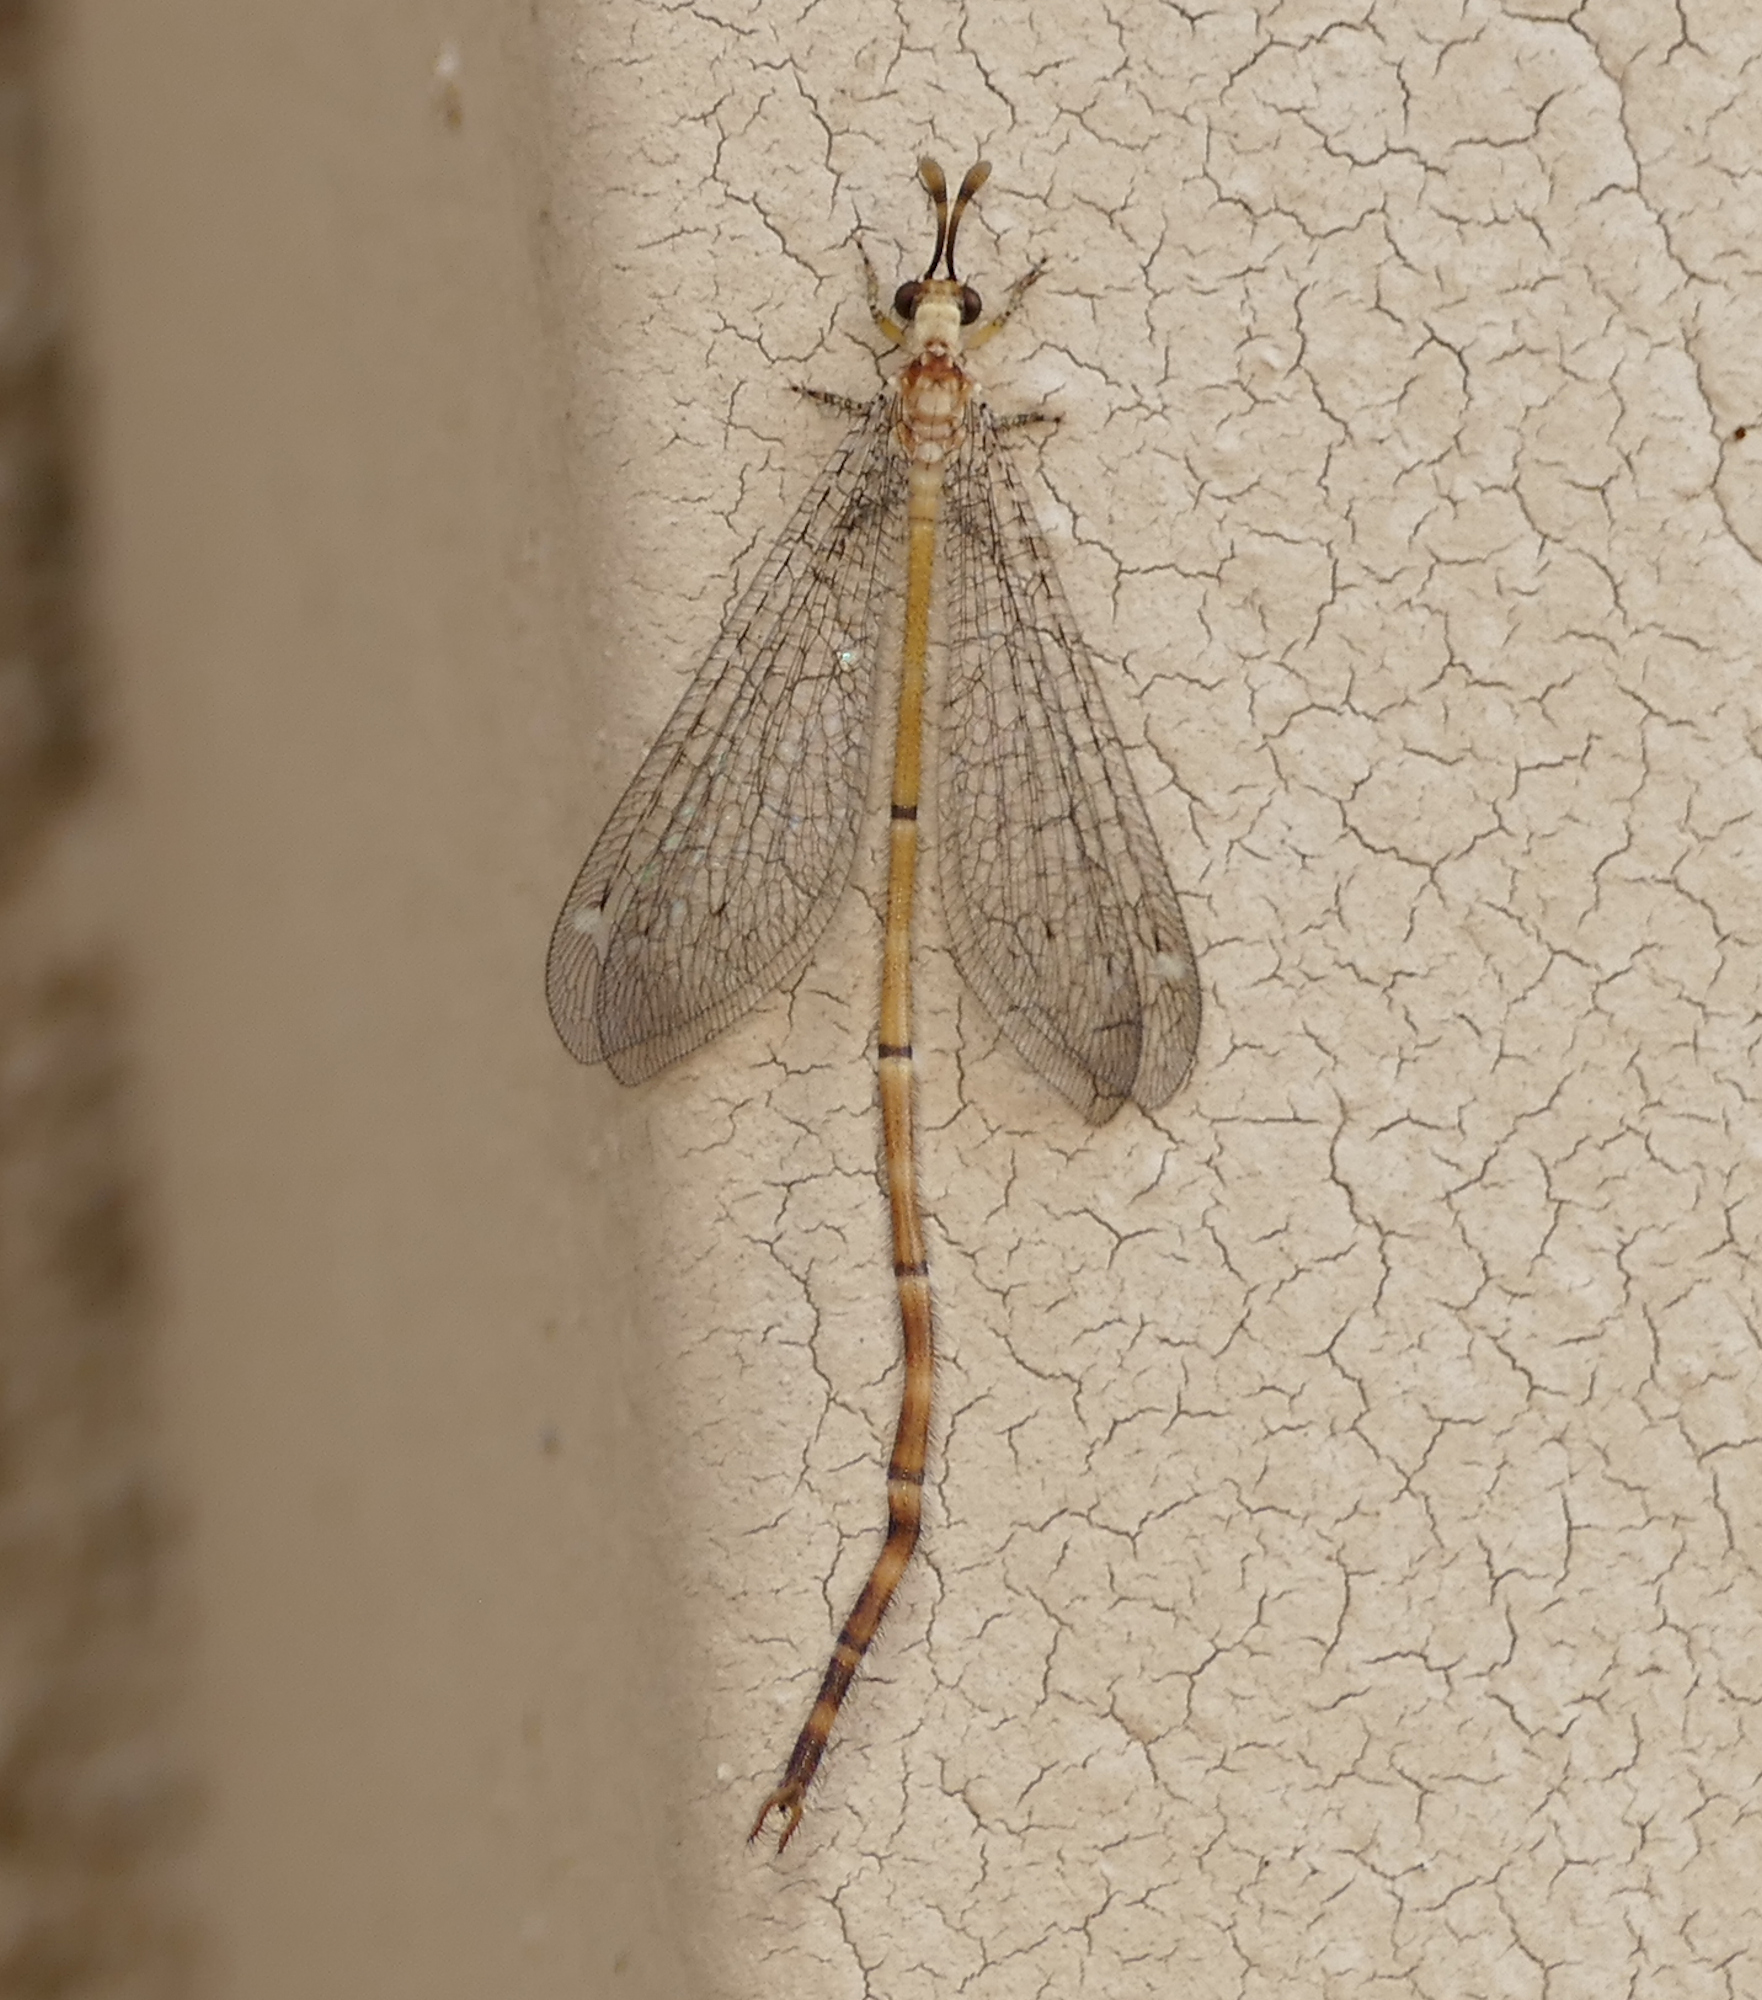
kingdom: Animalia
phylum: Arthropoda
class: Insecta
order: Neuroptera
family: Myrmeleontidae
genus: Clathroneuria
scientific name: Clathroneuria arapahoe
